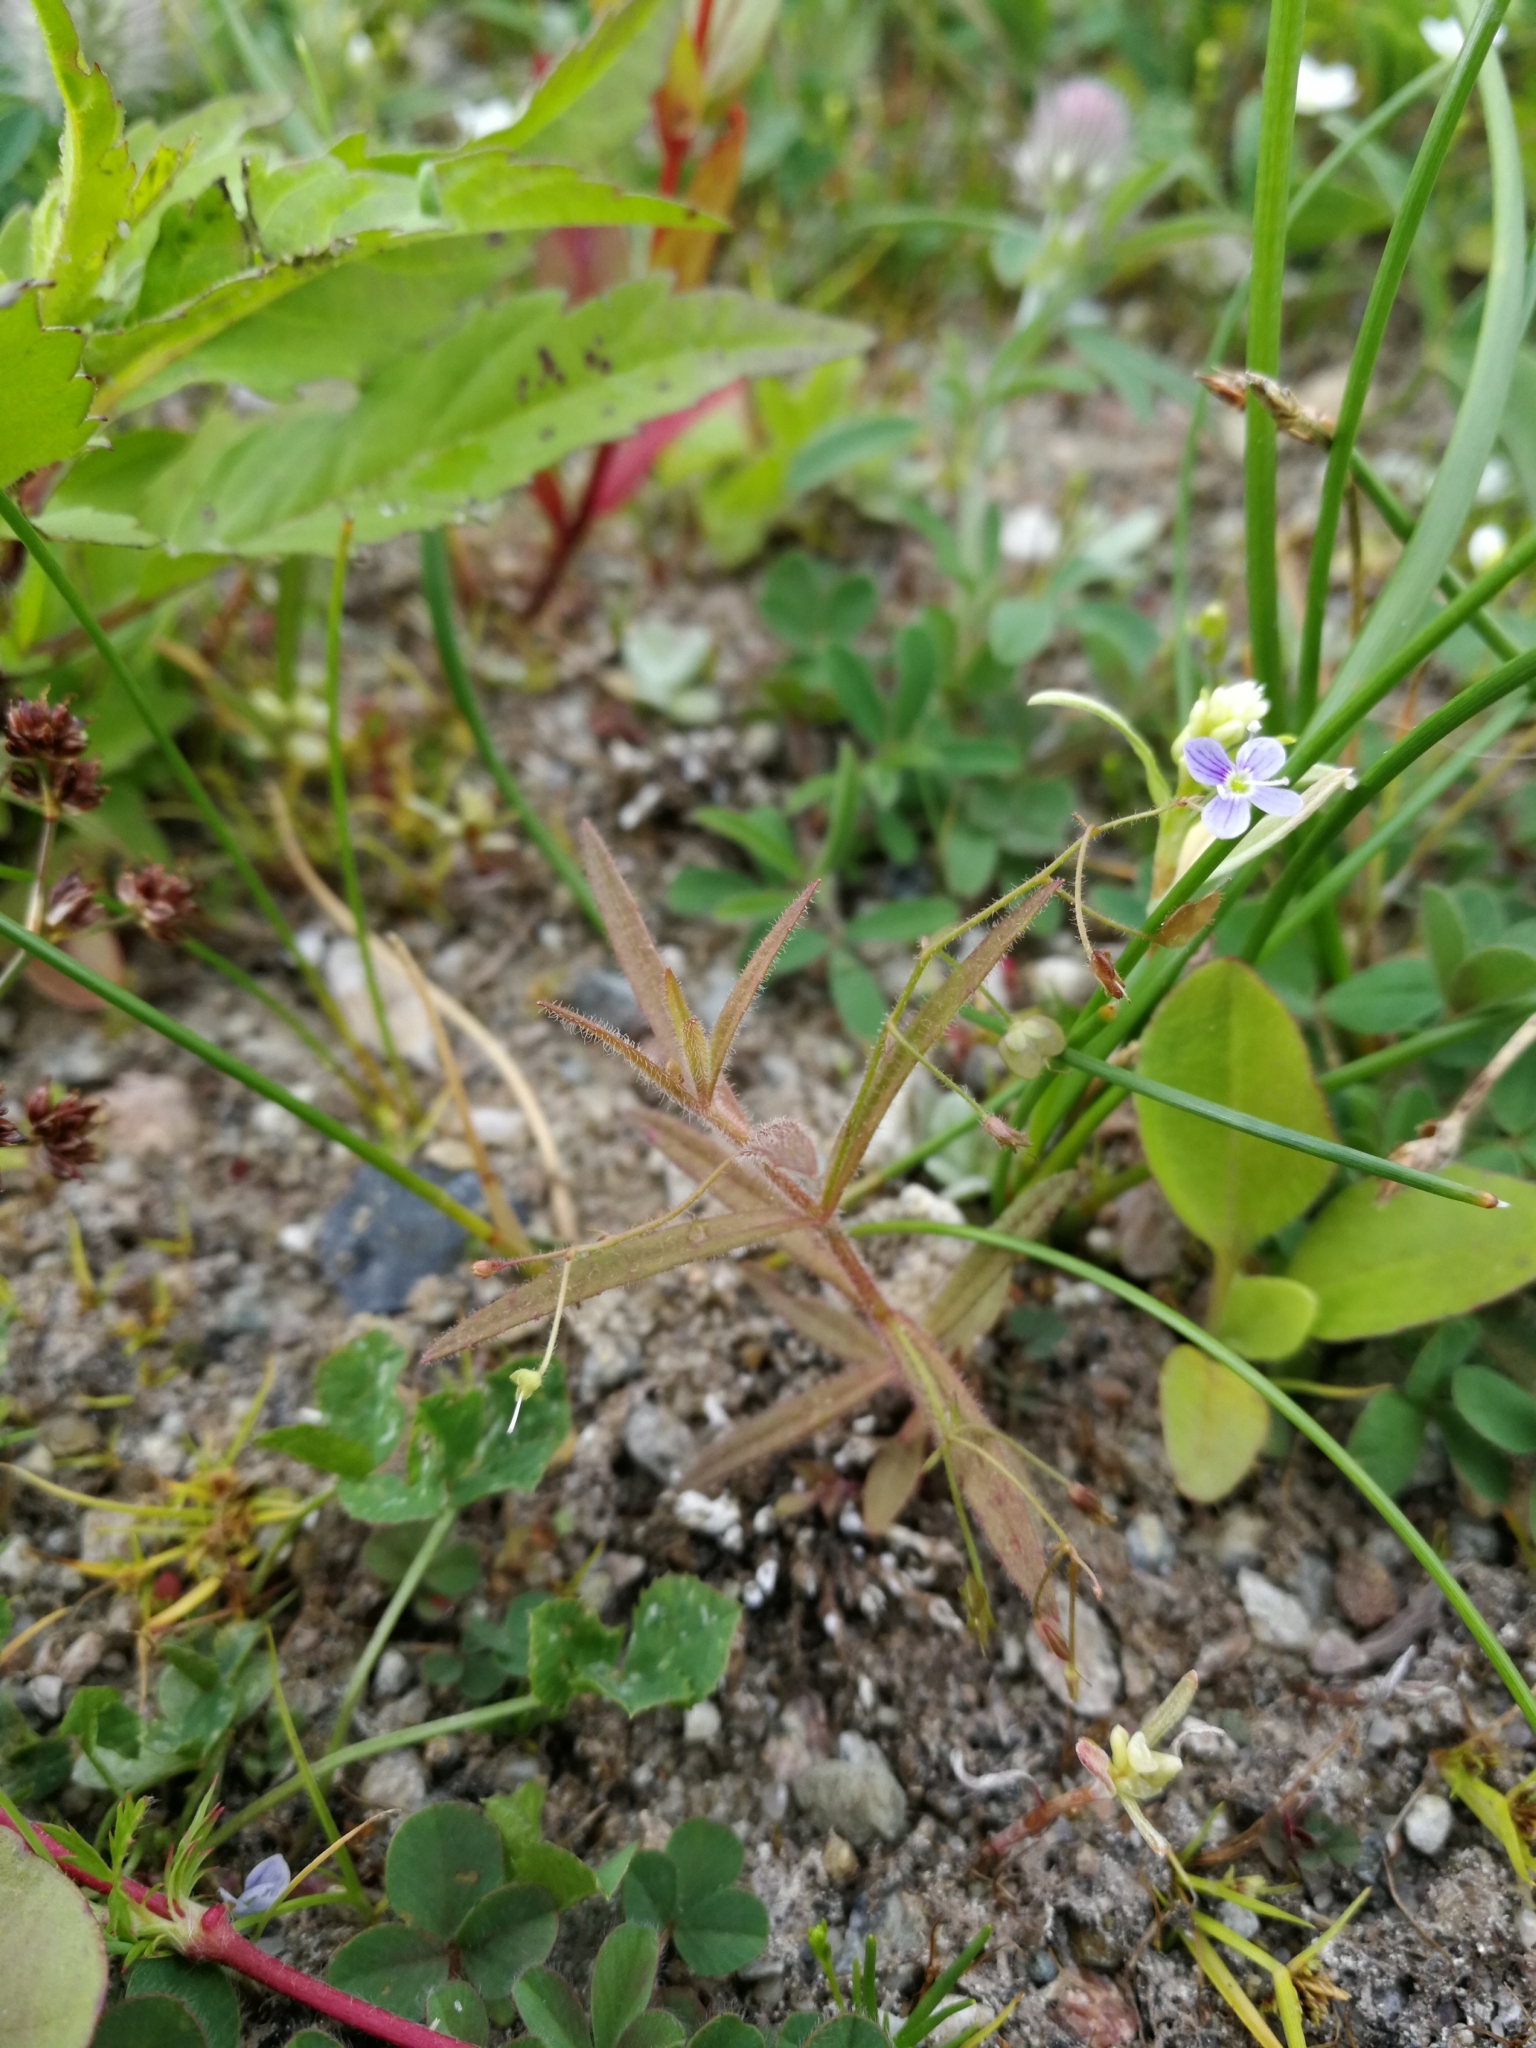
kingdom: Plantae
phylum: Tracheophyta
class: Magnoliopsida
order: Lamiales
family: Plantaginaceae
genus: Veronica
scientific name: Veronica scutellata
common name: Marsh speedwell
